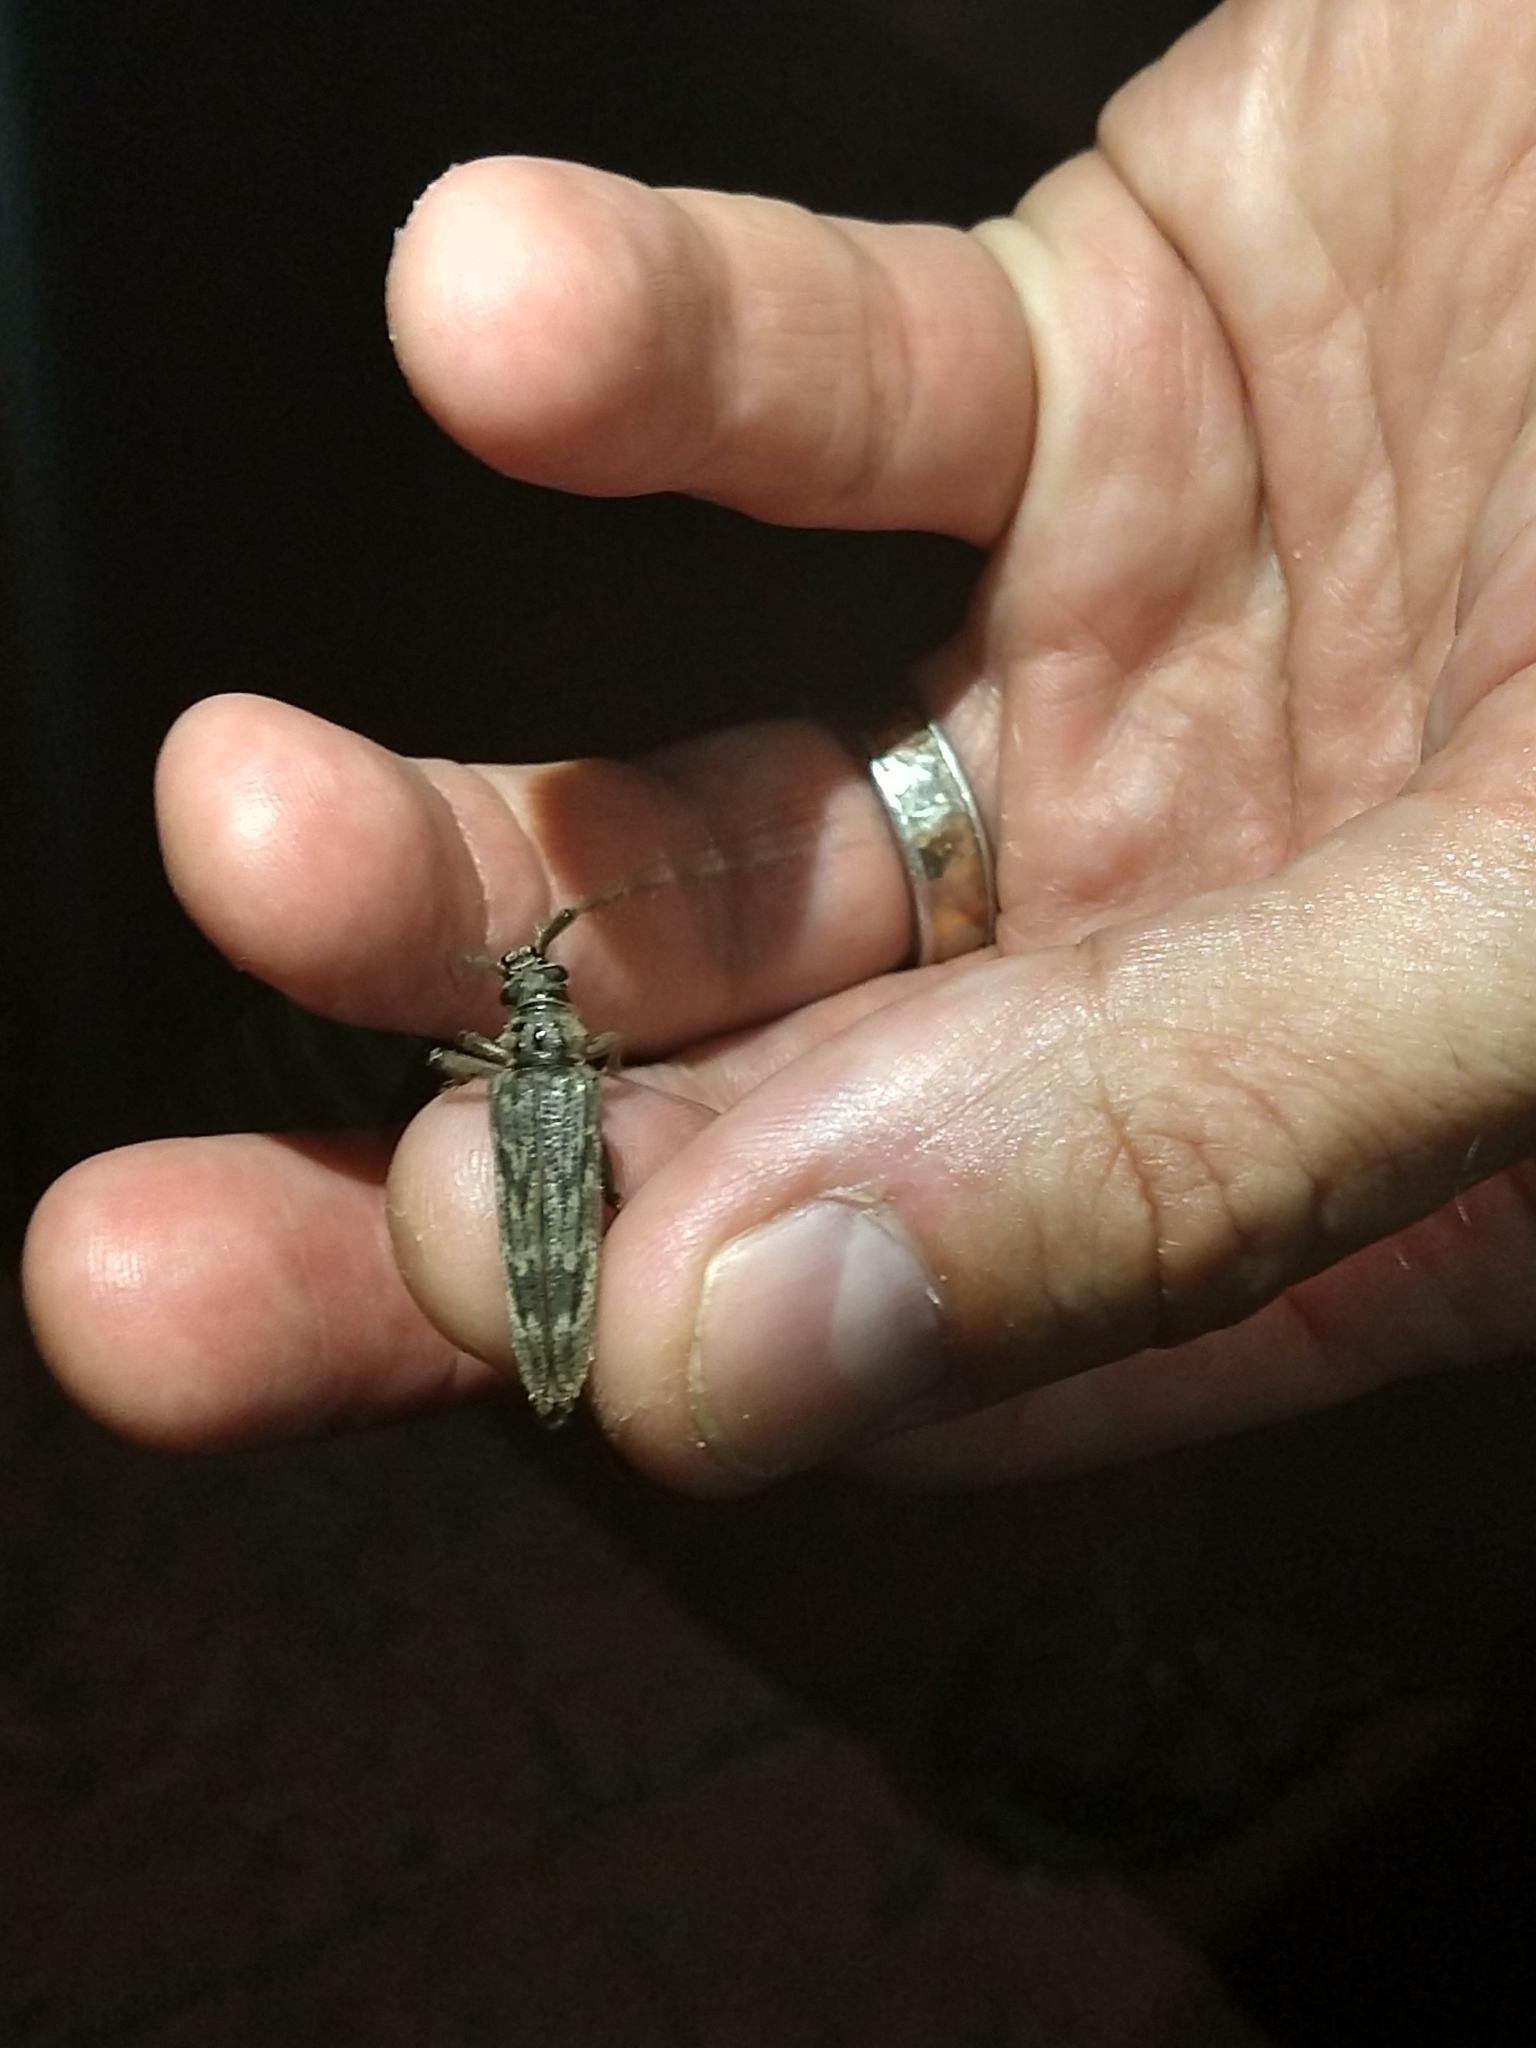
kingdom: Animalia
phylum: Arthropoda
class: Insecta
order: Coleoptera
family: Cerambycidae
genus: Elytrimitatrix
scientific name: Elytrimitatrix undata
